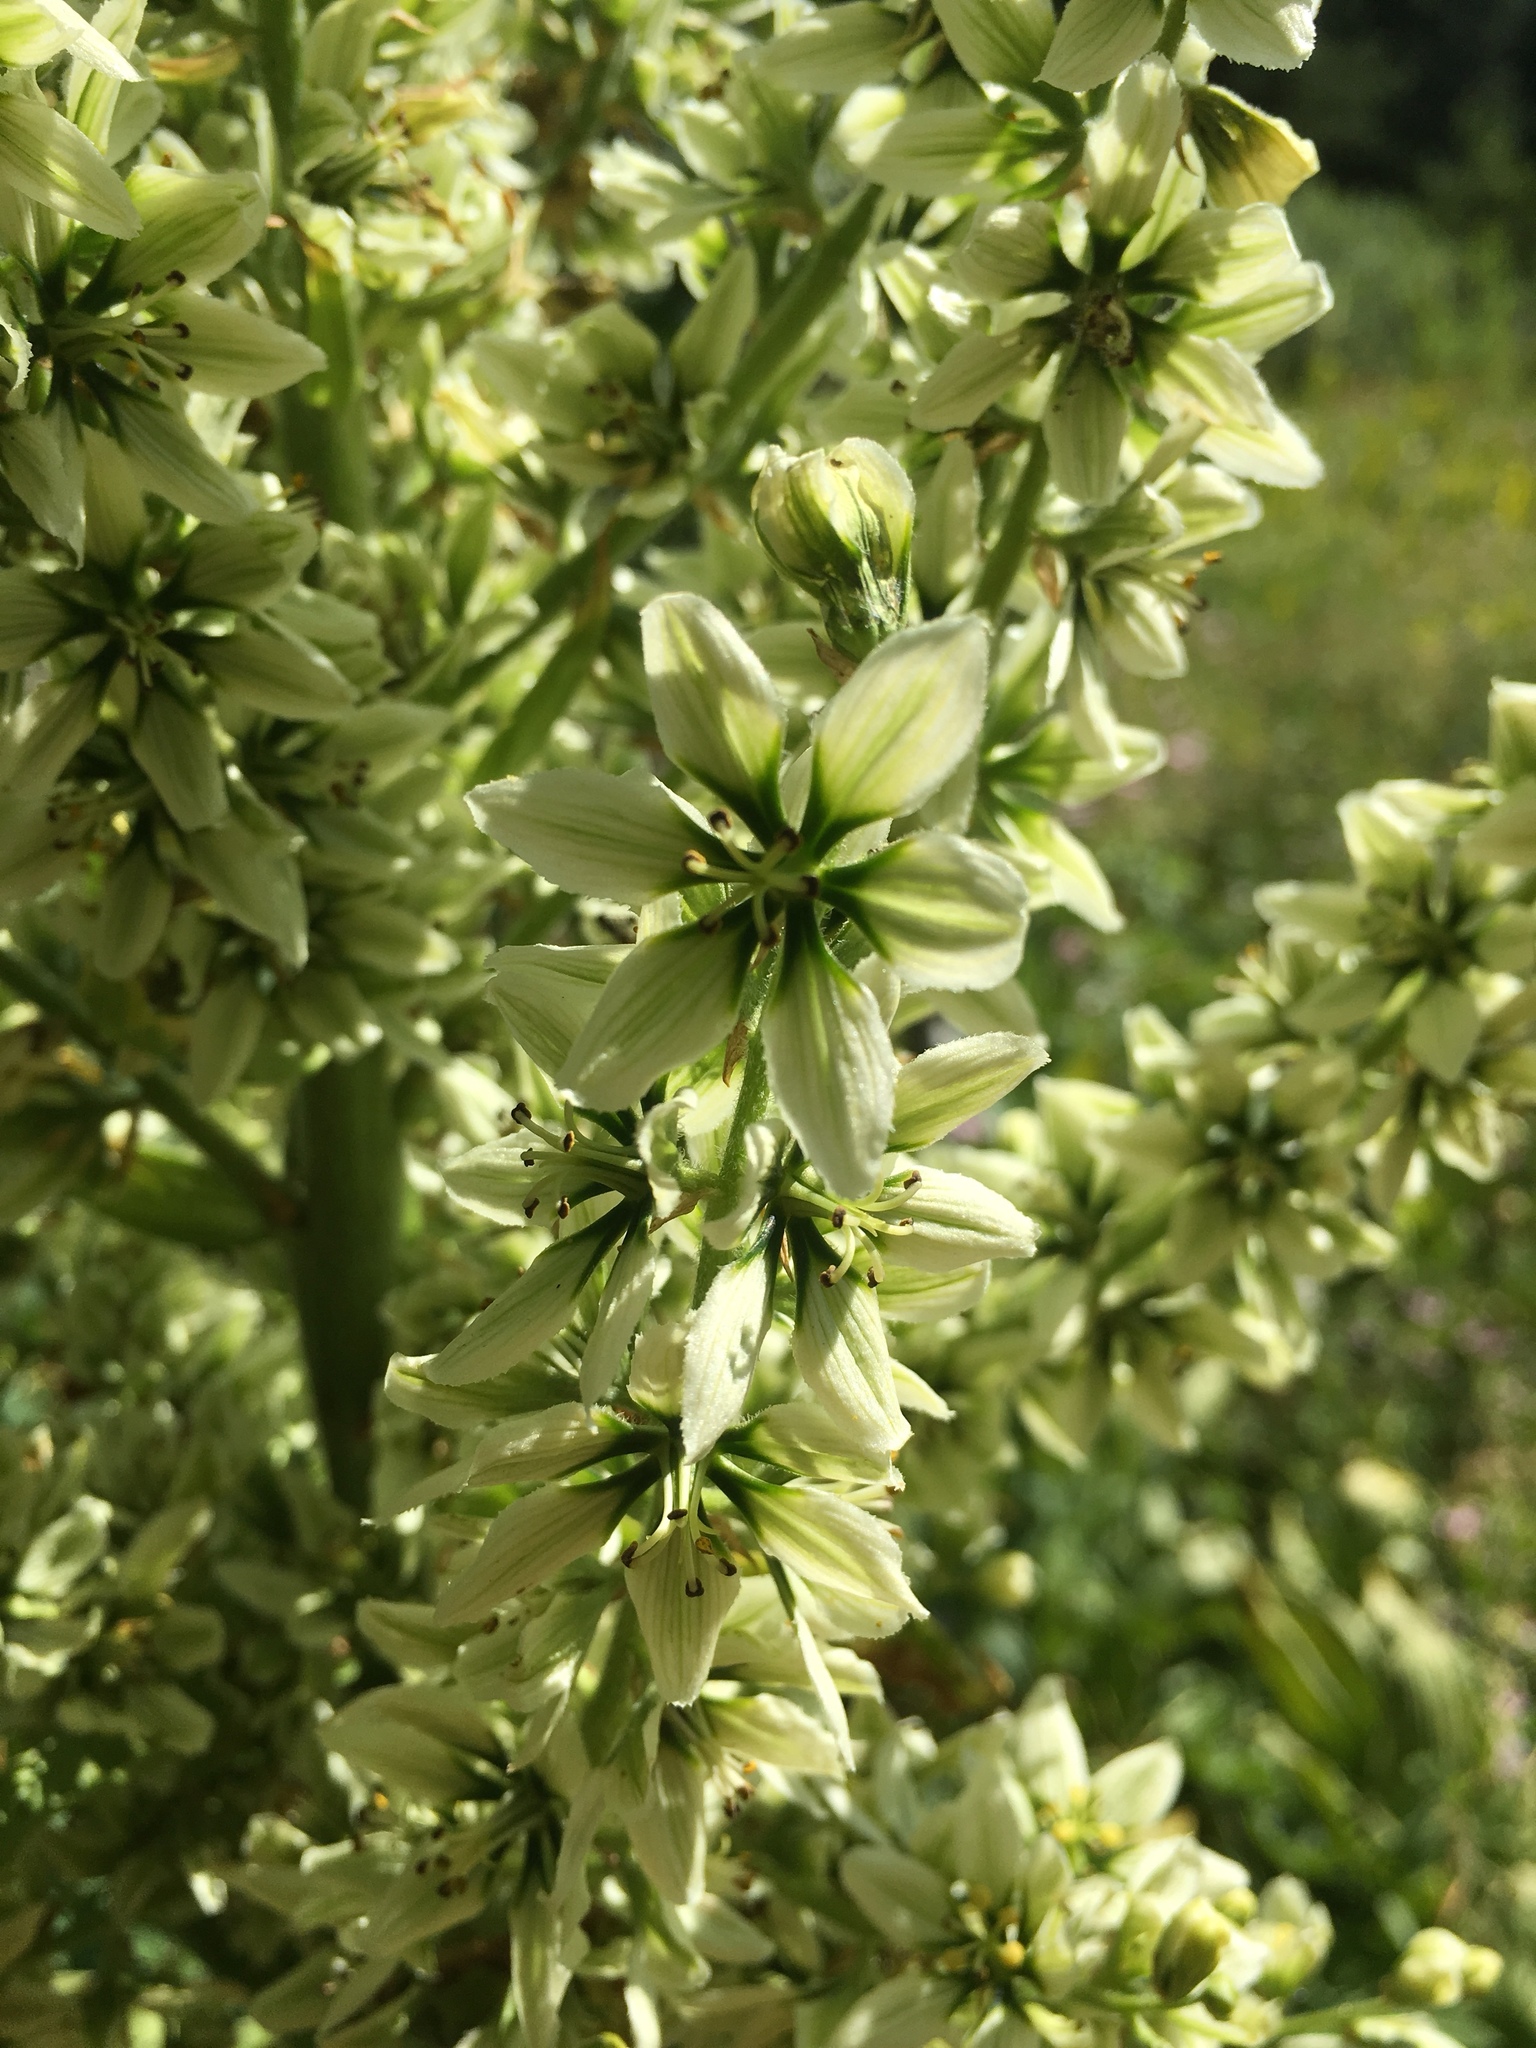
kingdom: Plantae
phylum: Tracheophyta
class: Liliopsida
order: Liliales
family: Melanthiaceae
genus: Veratrum
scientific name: Veratrum californicum
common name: California veratrum
